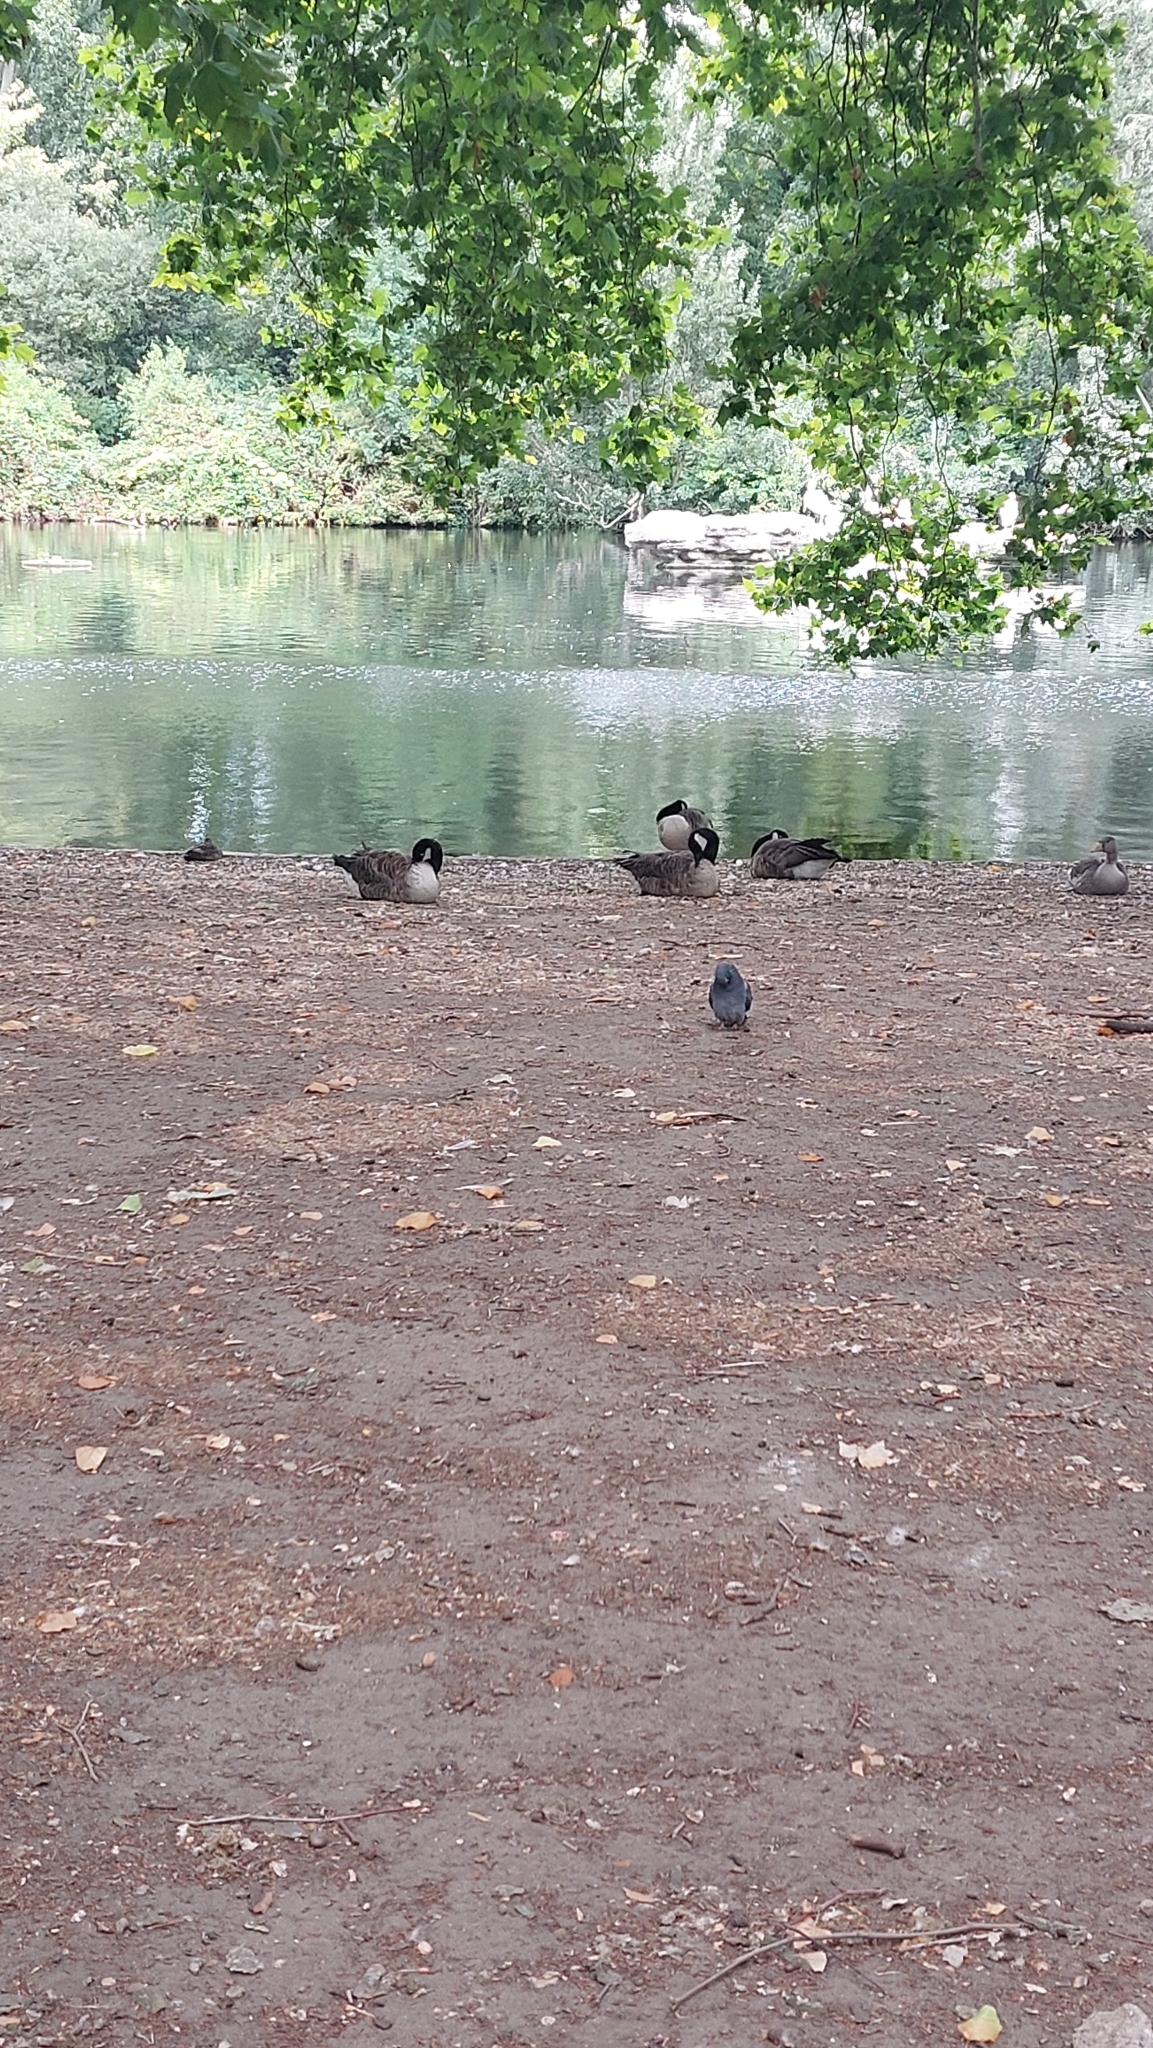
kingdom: Animalia
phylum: Chordata
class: Aves
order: Anseriformes
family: Anatidae
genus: Branta
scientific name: Branta canadensis
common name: Canada goose
